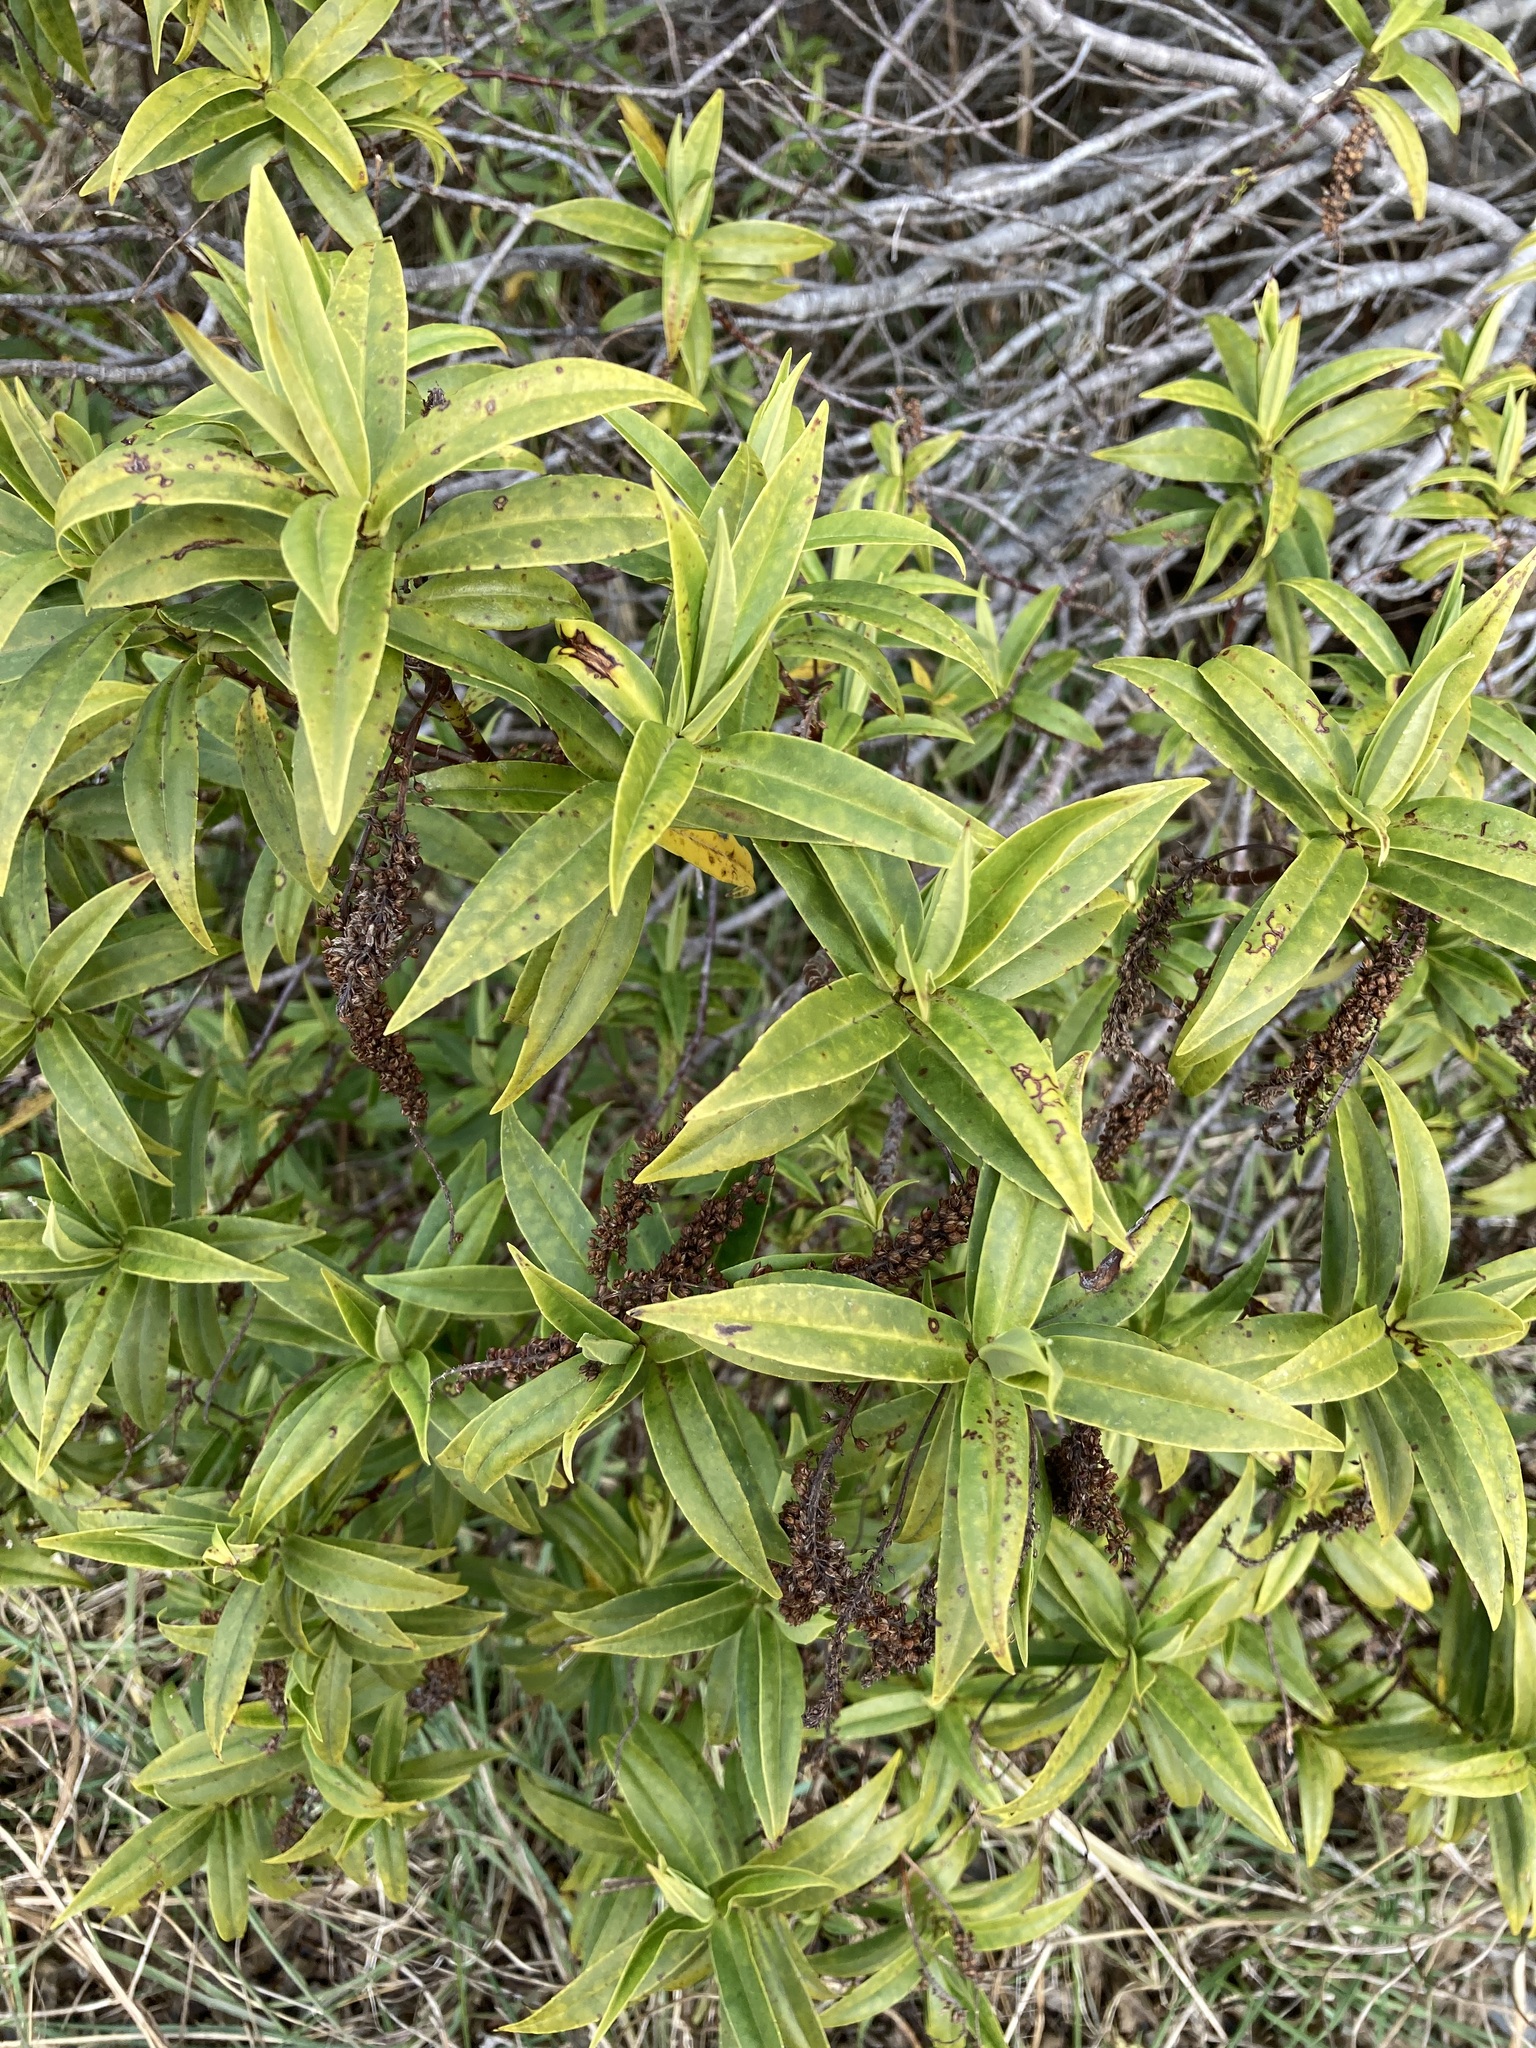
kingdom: Plantae
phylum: Tracheophyta
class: Magnoliopsida
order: Lamiales
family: Plantaginaceae
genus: Veronica
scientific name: Veronica salicifolia
